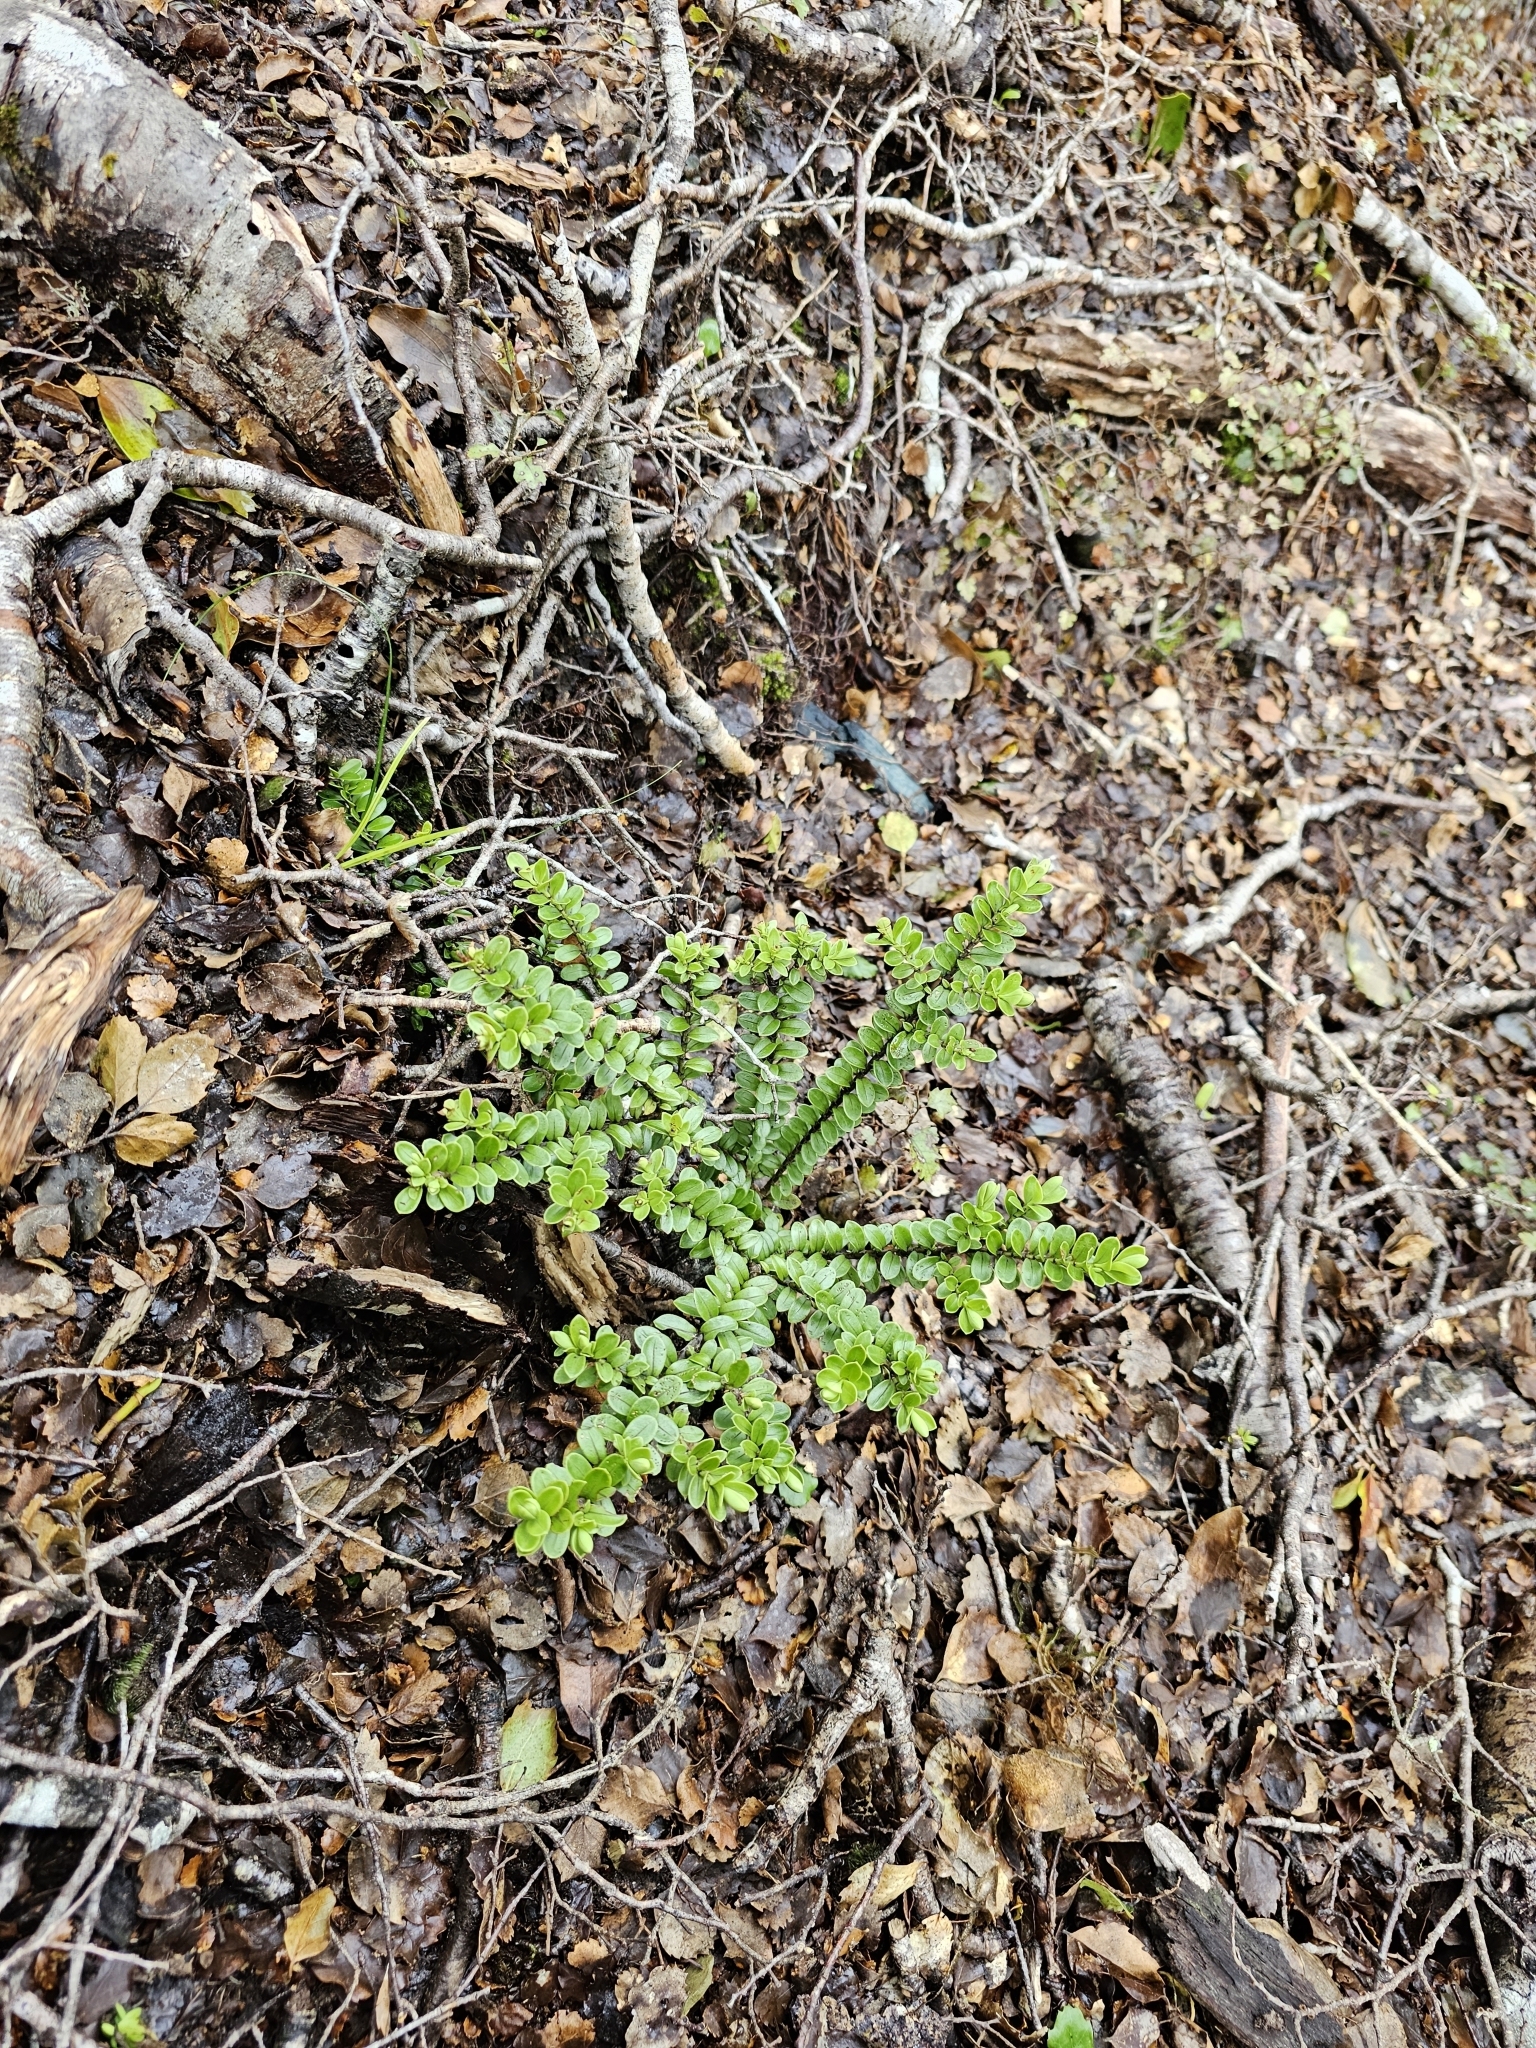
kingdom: Plantae
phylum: Tracheophyta
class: Magnoliopsida
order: Lamiales
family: Plantaginaceae
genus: Veronica
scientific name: Veronica vernicosa
